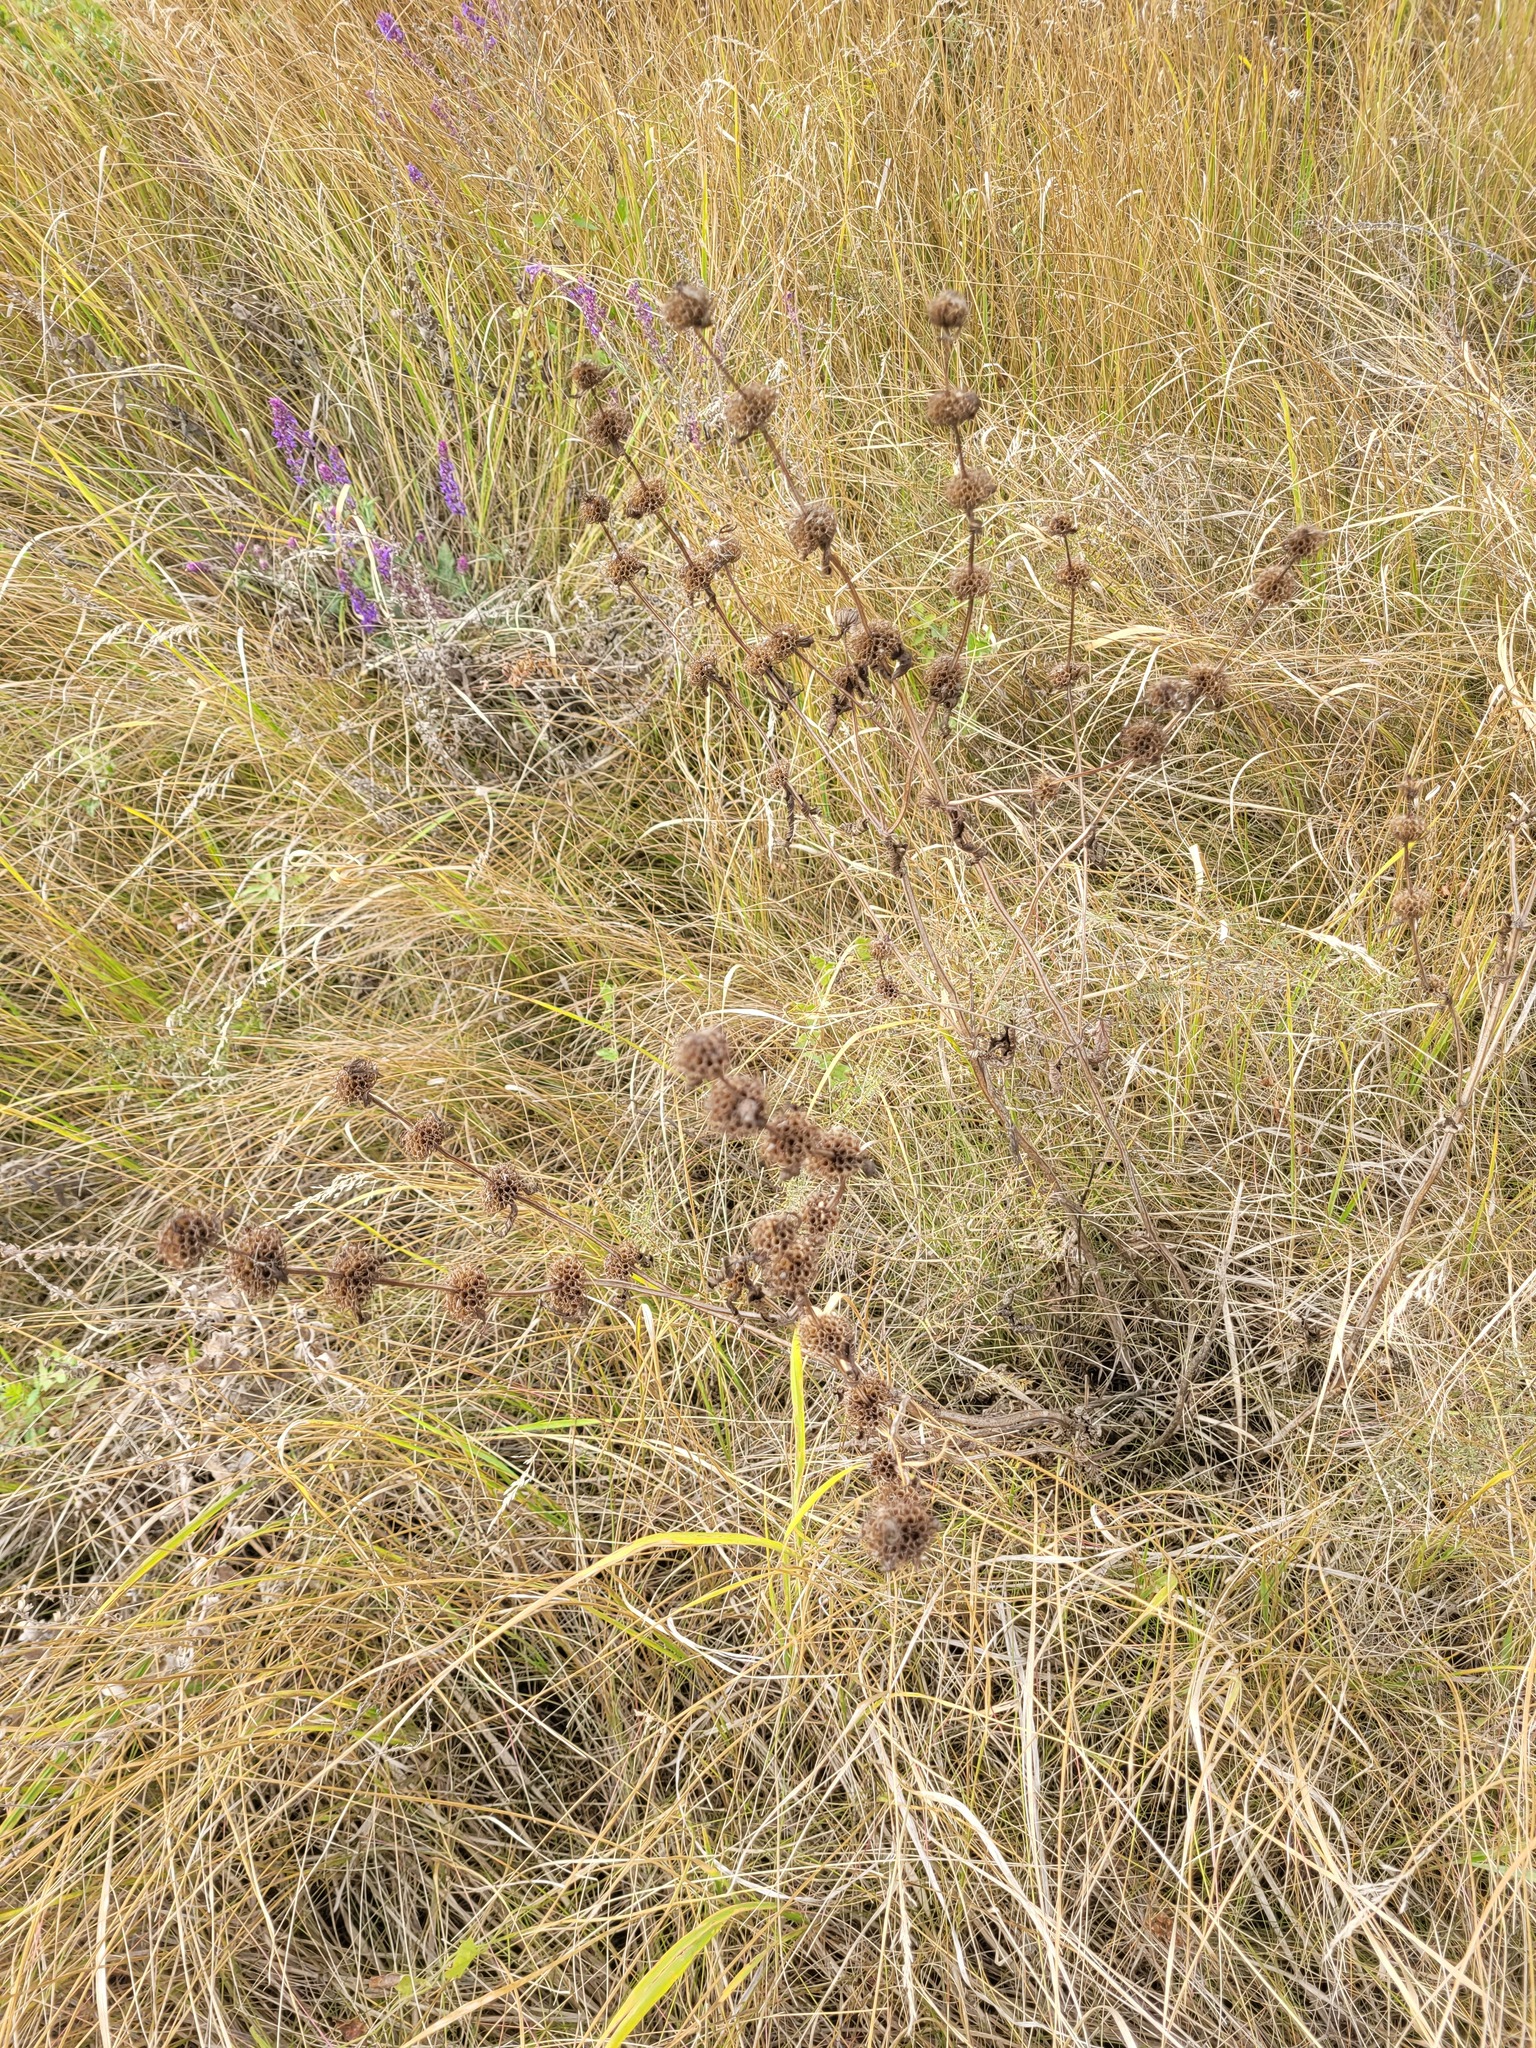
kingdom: Plantae
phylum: Tracheophyta
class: Magnoliopsida
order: Lamiales
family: Lamiaceae
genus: Phlomoides
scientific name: Phlomoides tuberosa
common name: Tuberous jerusalem sage
